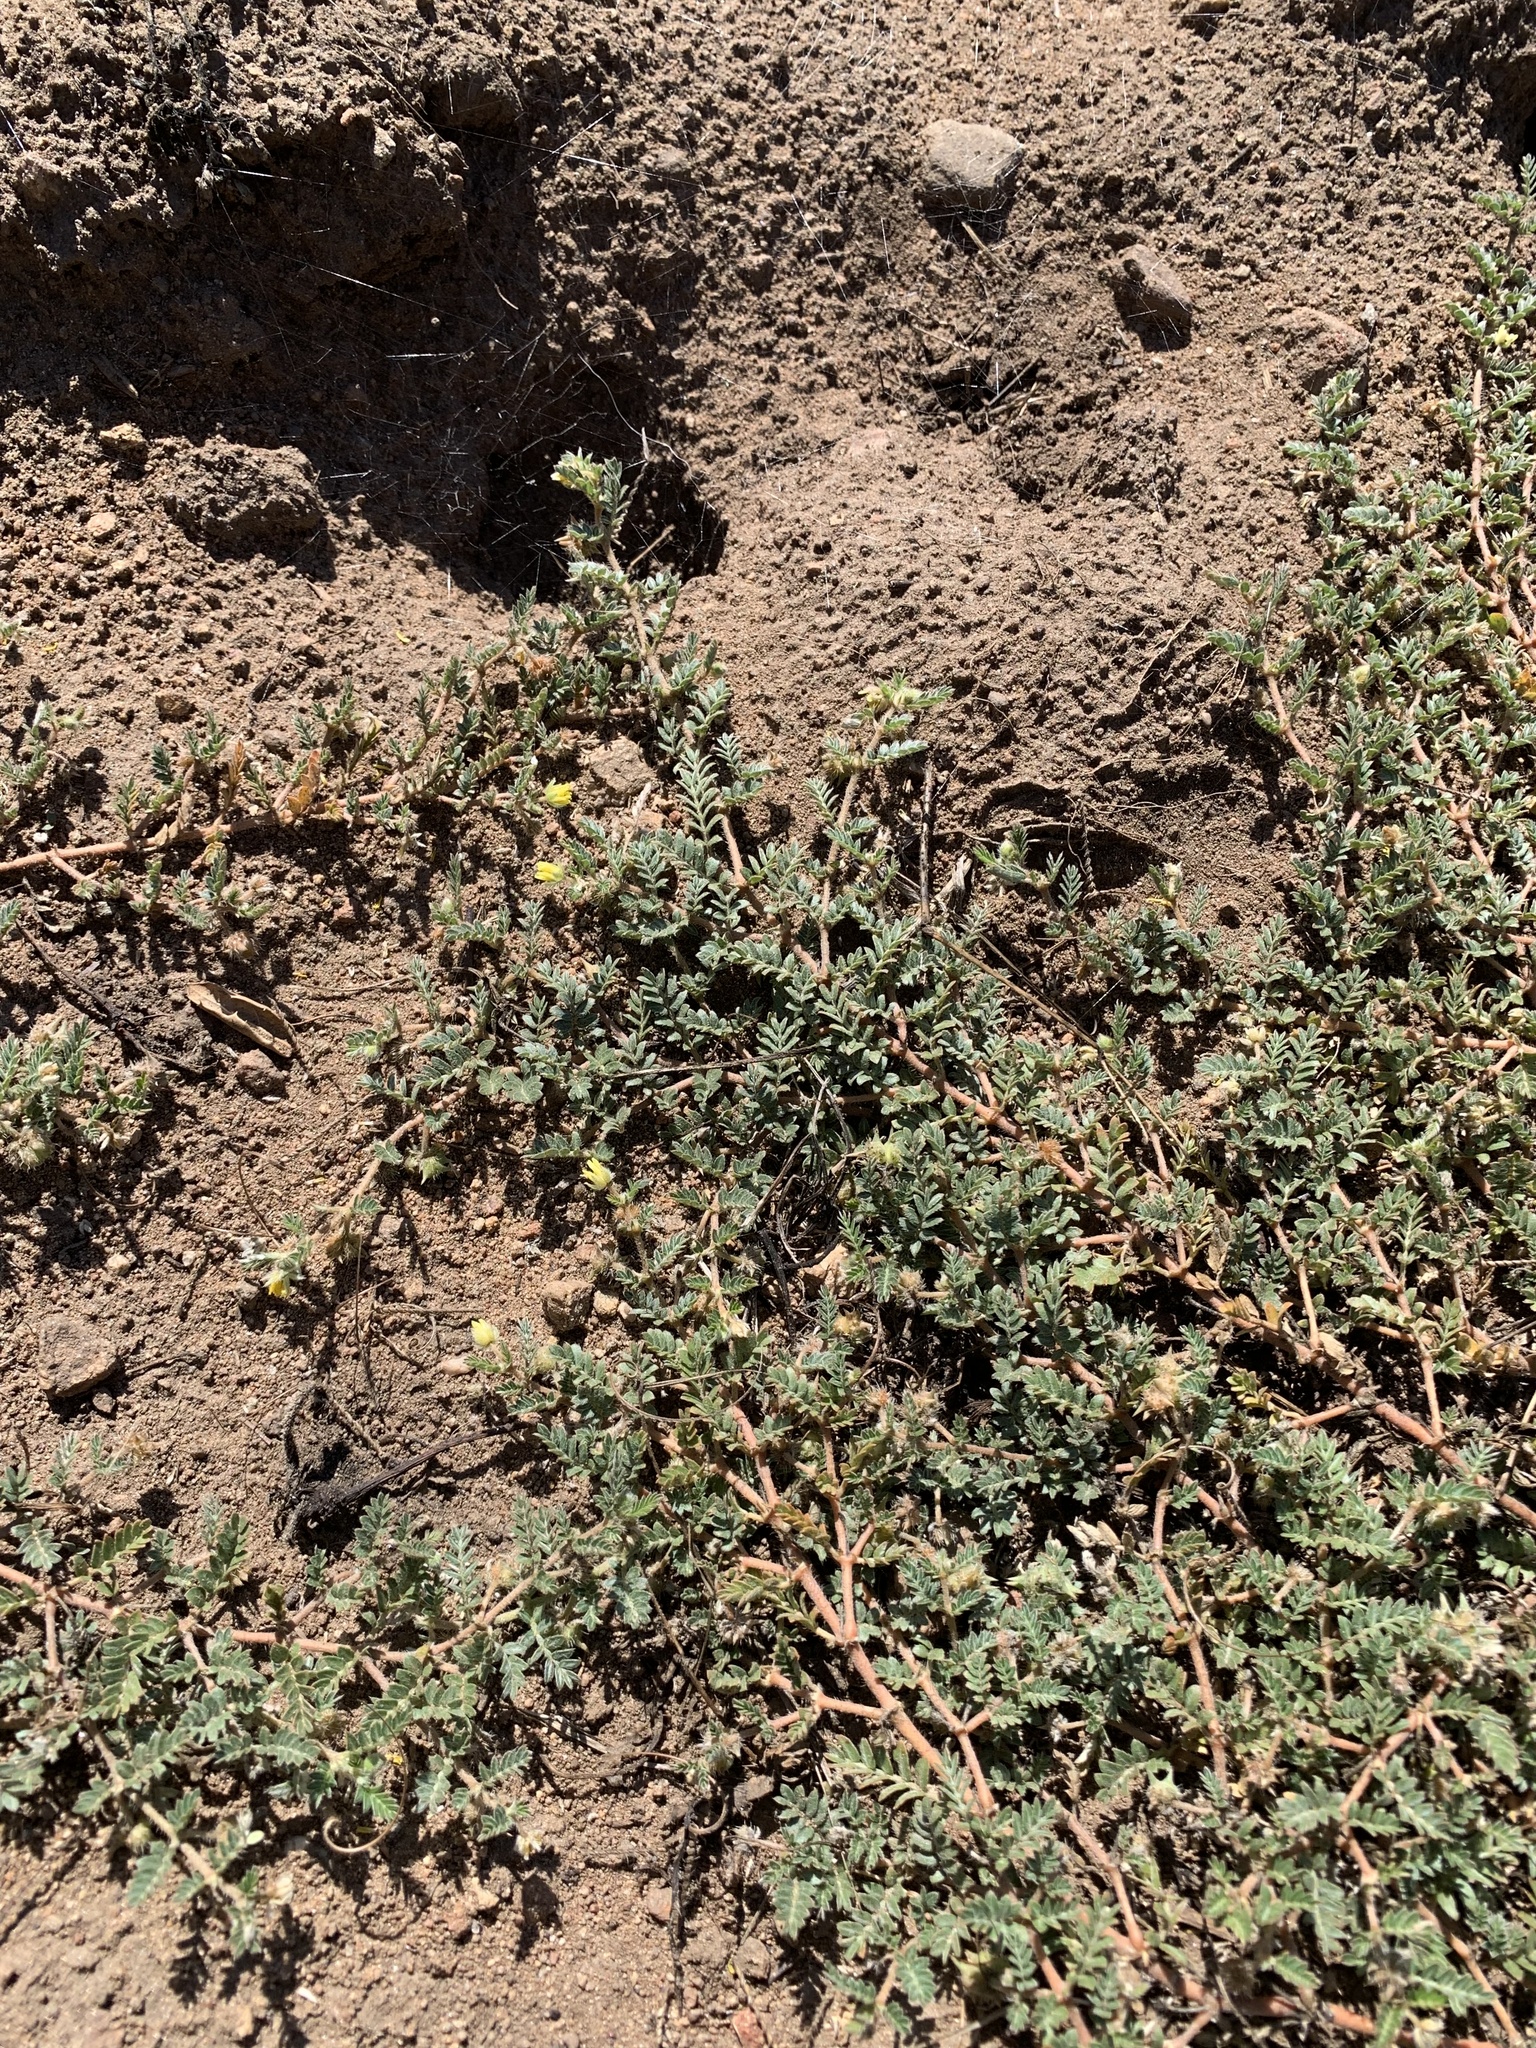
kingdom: Plantae
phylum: Tracheophyta
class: Magnoliopsida
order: Zygophyllales
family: Zygophyllaceae
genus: Tribulus
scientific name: Tribulus terrestris
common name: Puncturevine
